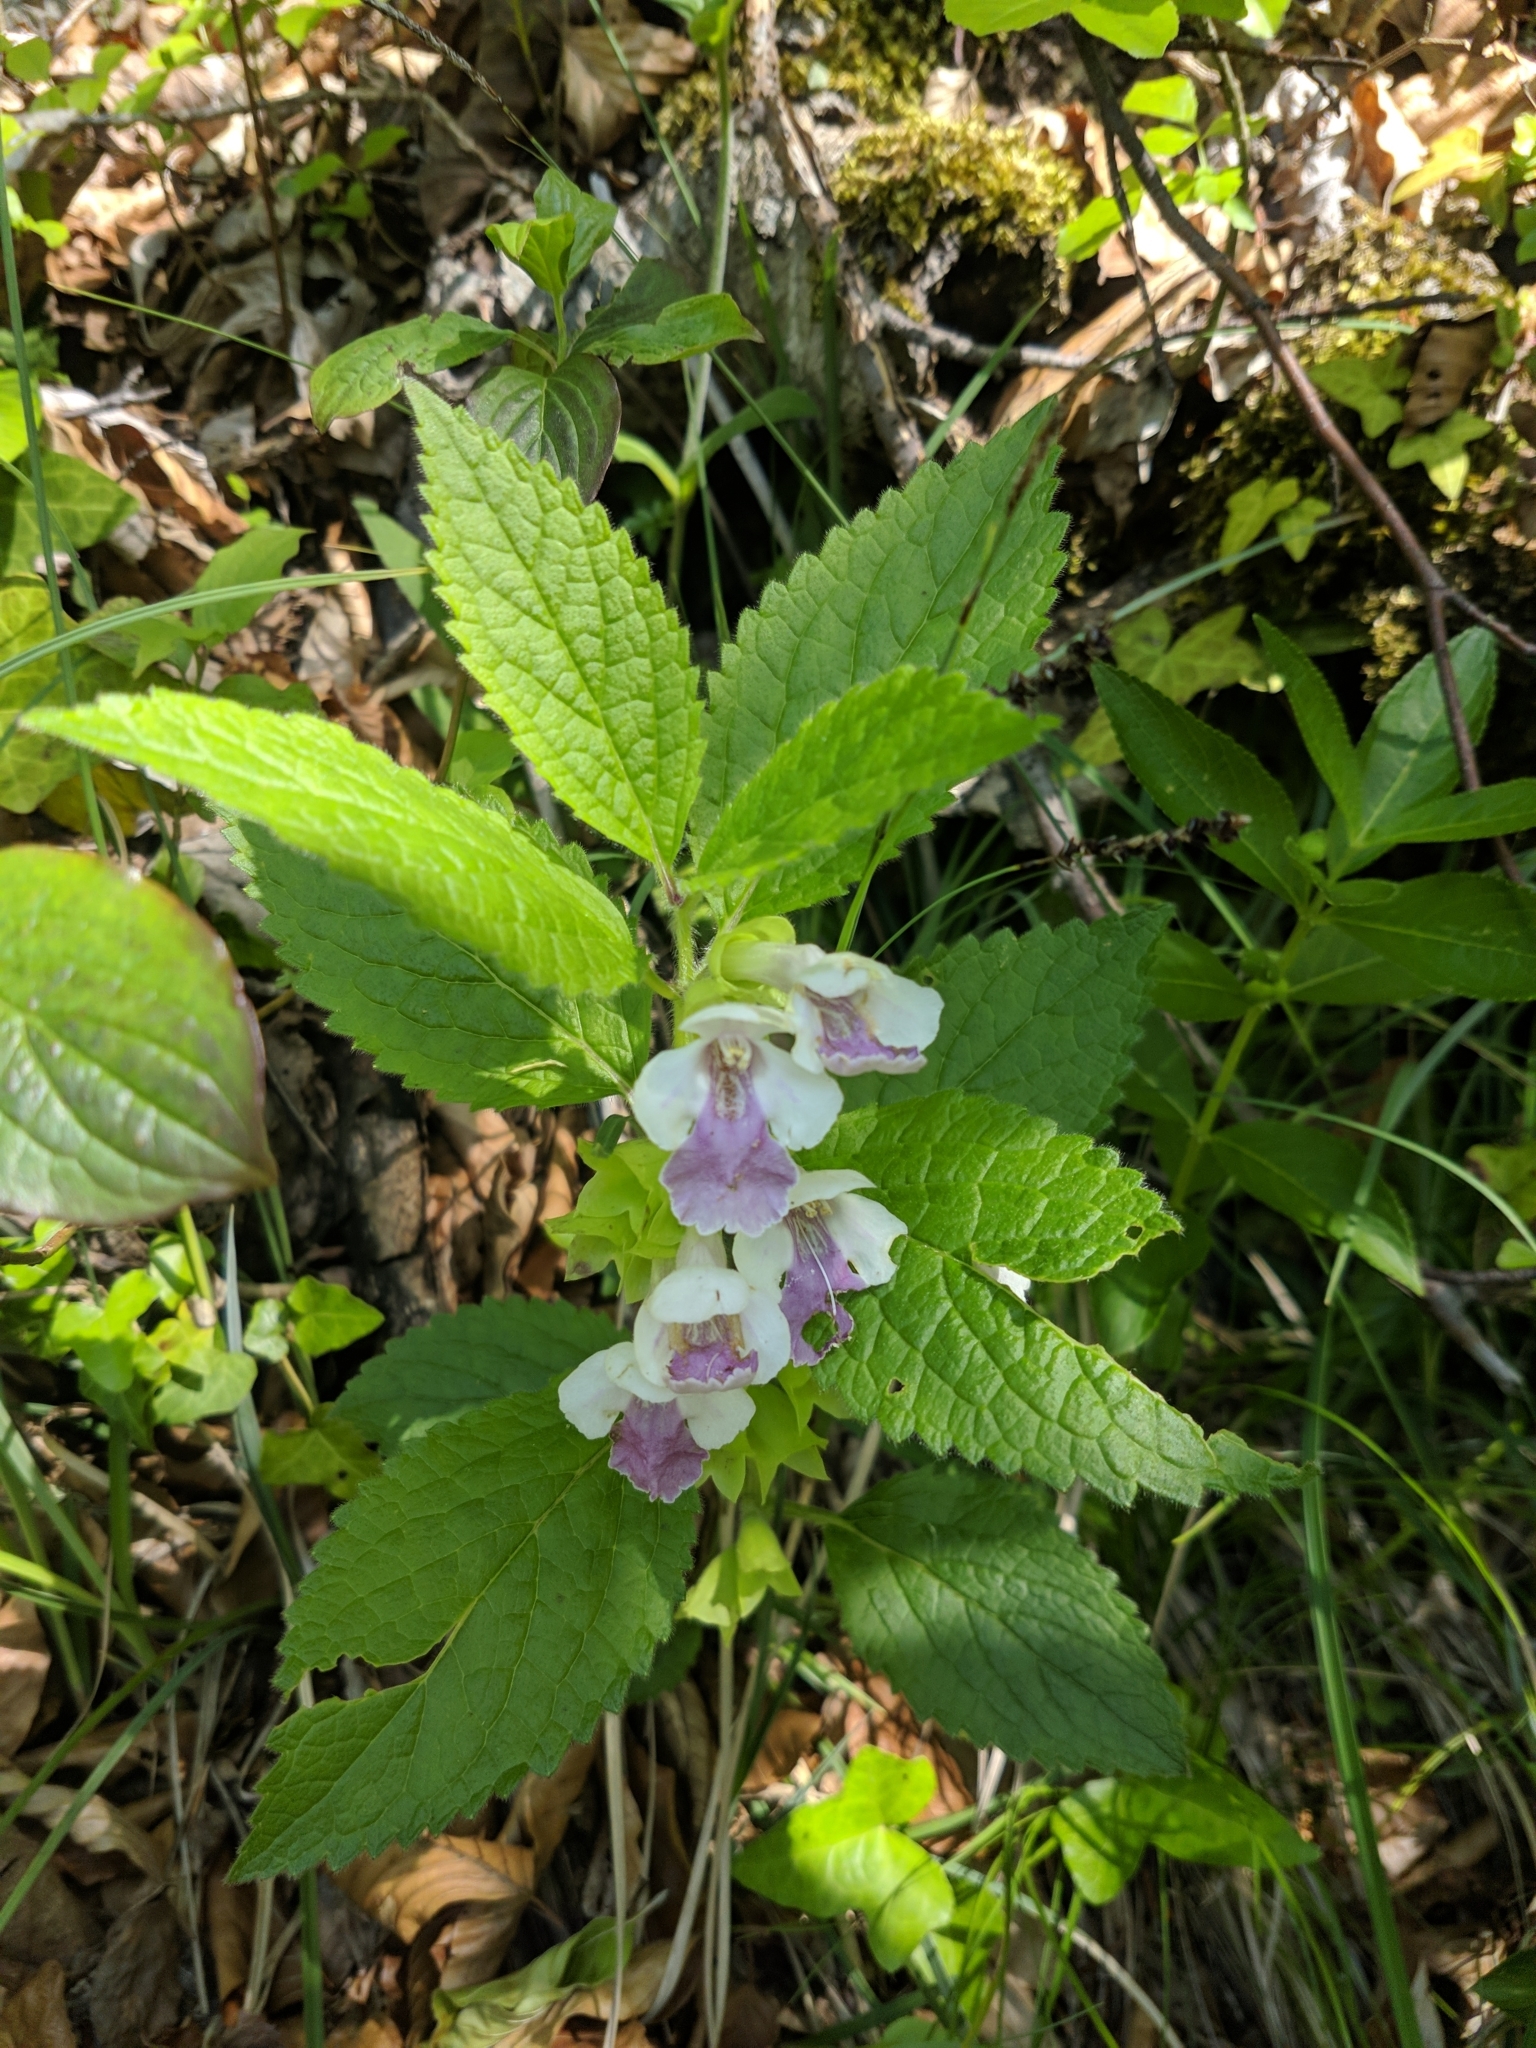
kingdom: Plantae
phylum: Tracheophyta
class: Magnoliopsida
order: Lamiales
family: Lamiaceae
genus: Melittis
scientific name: Melittis melissophyllum
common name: Bastard balm
